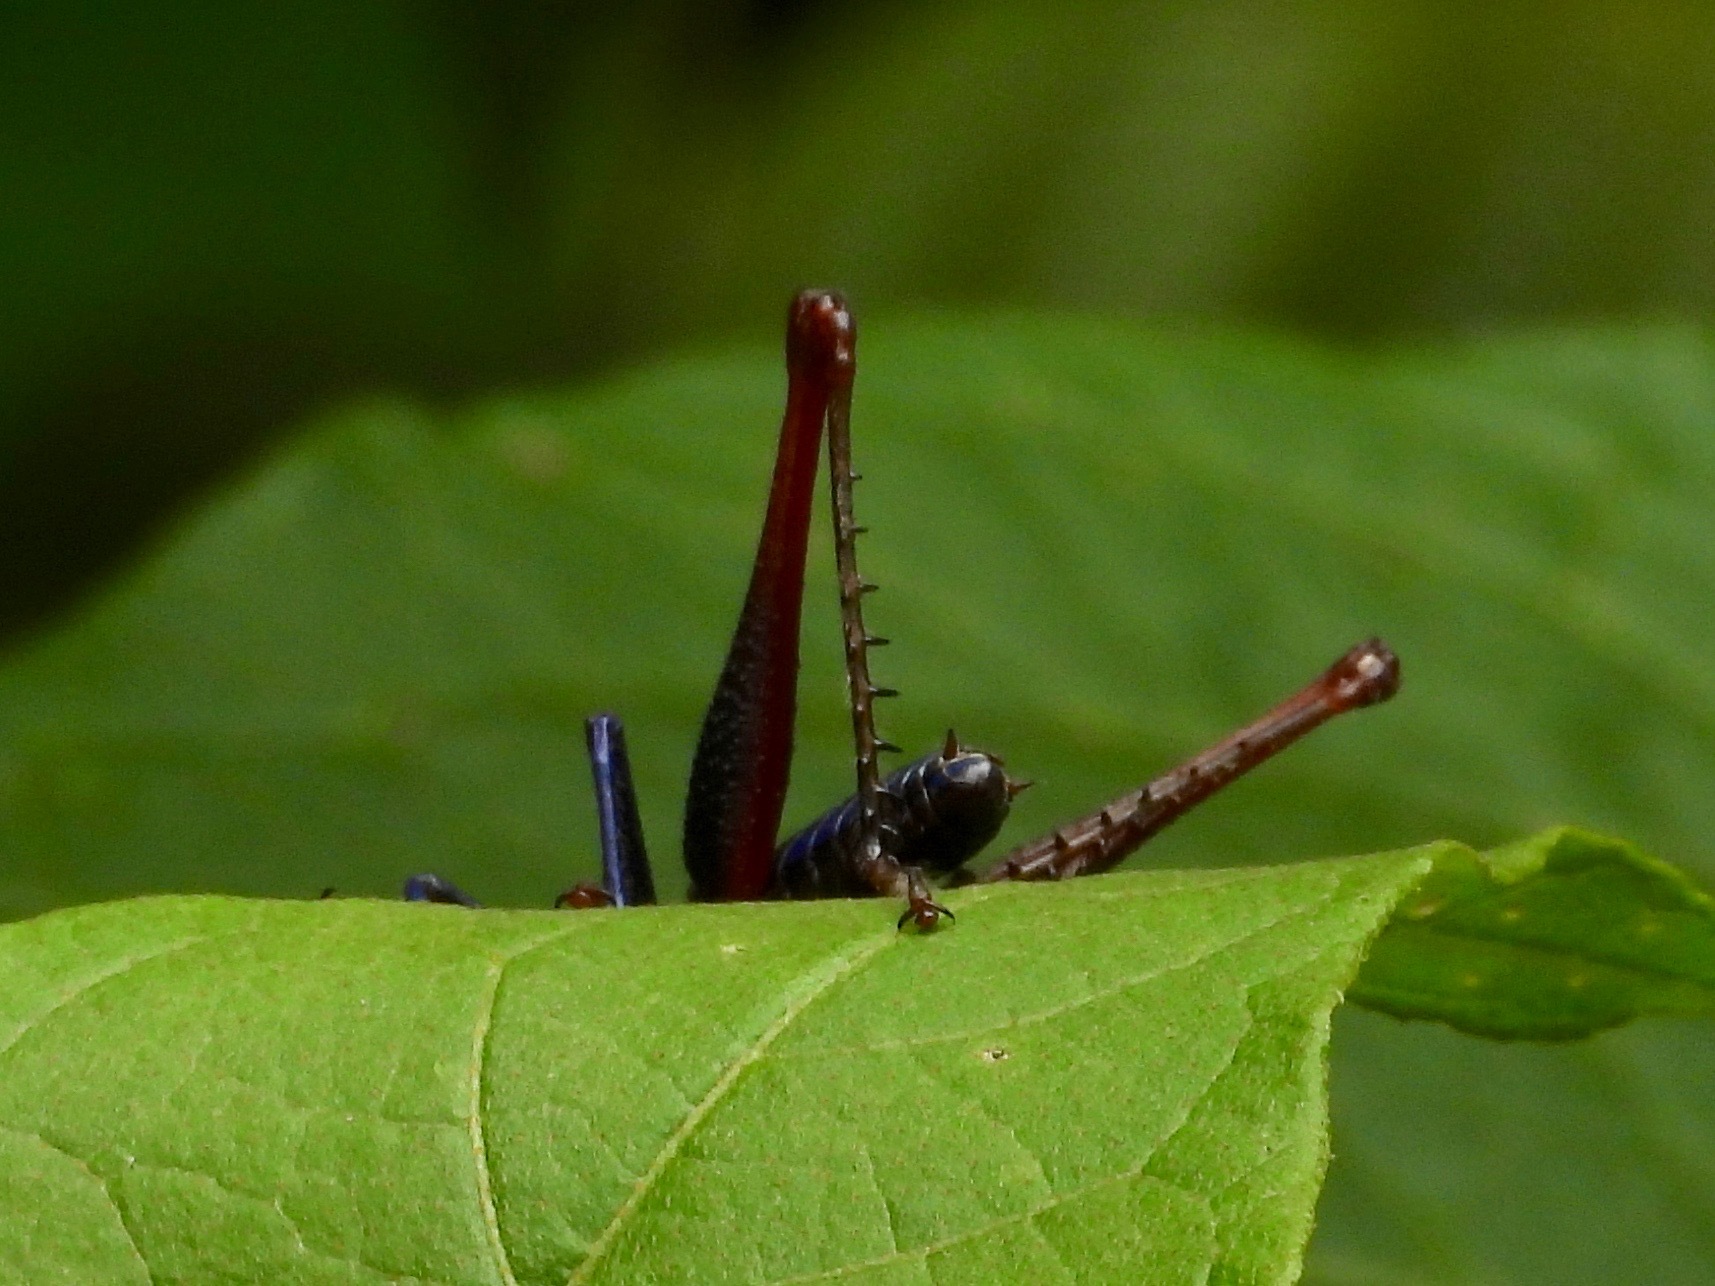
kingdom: Animalia
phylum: Arthropoda
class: Insecta
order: Orthoptera
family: Acrididae
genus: Opaon
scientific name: Opaon varicolor
